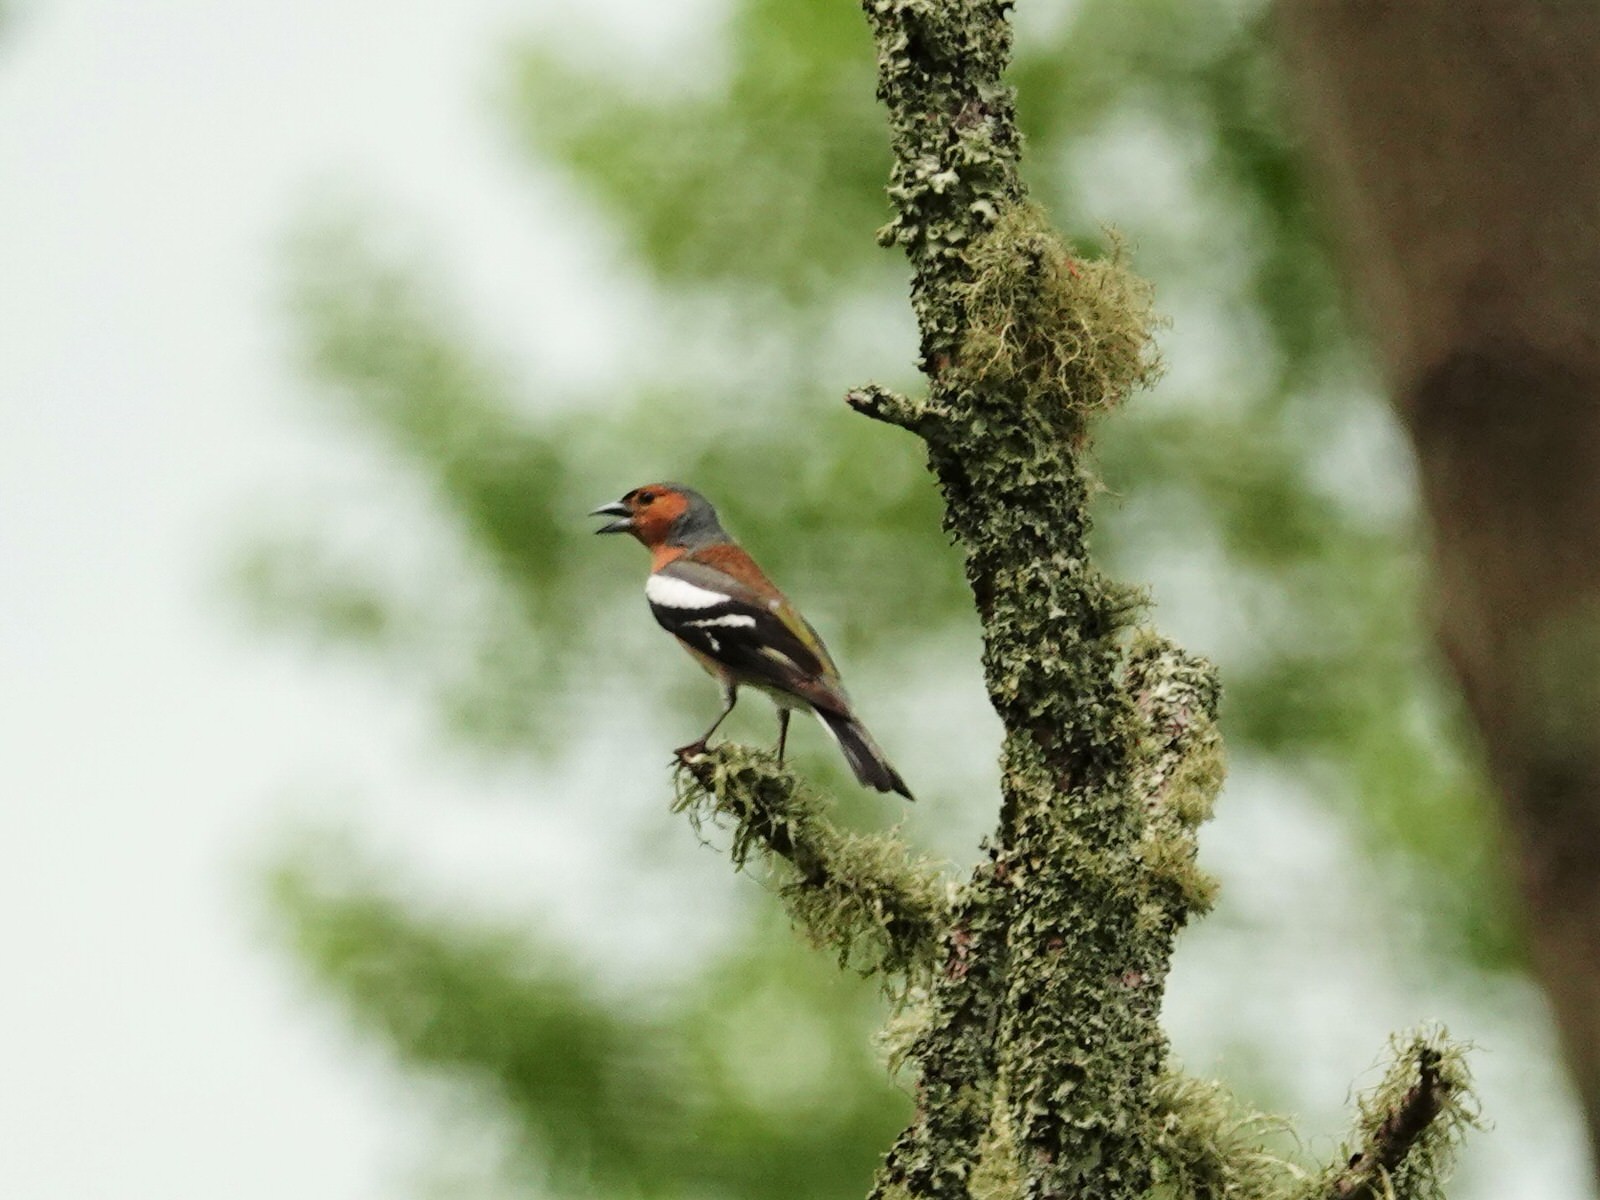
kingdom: Animalia
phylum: Chordata
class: Aves
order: Passeriformes
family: Fringillidae
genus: Fringilla
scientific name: Fringilla coelebs
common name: Common chaffinch
